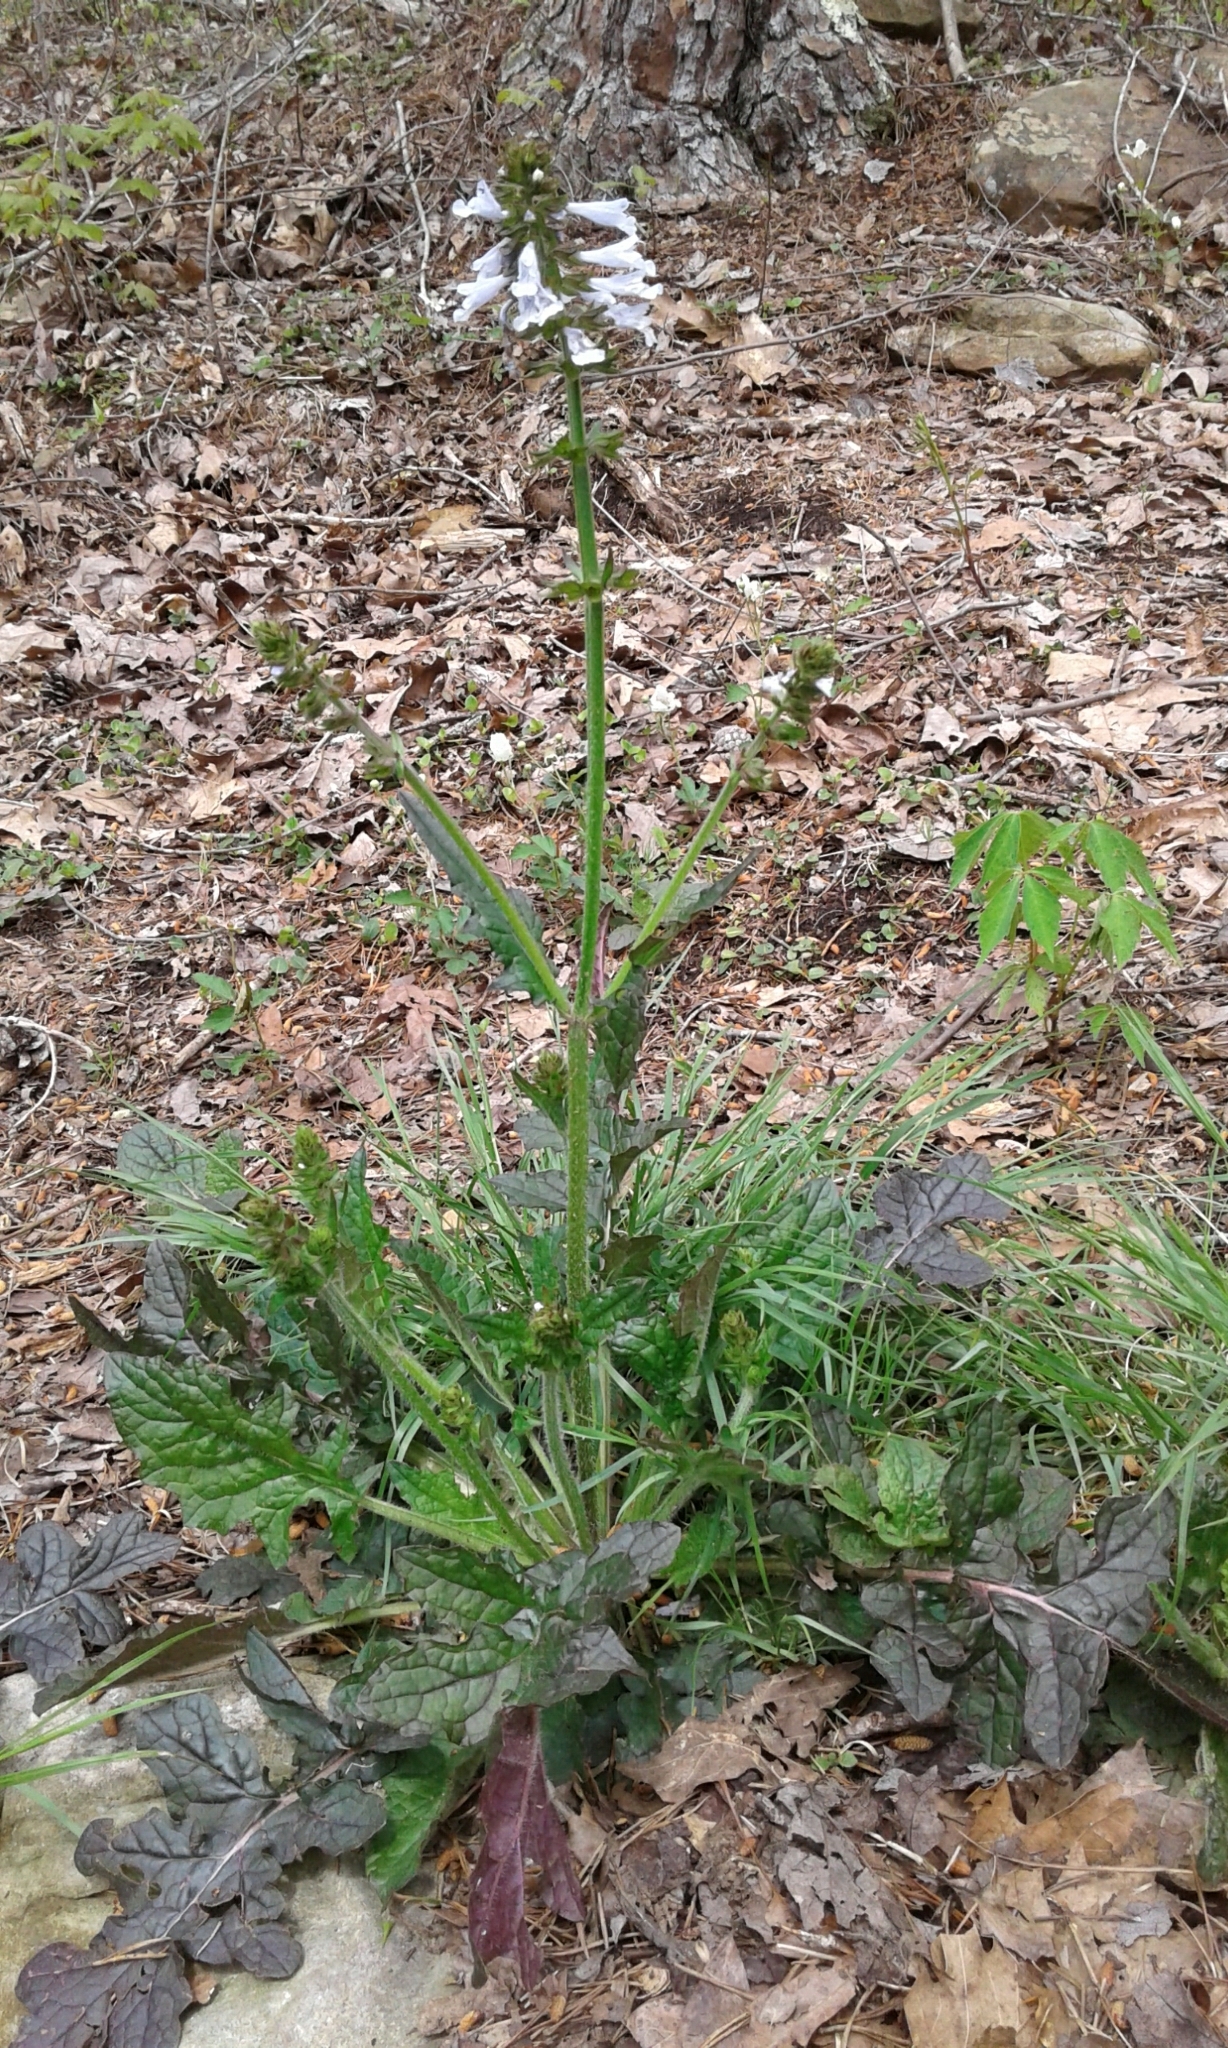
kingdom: Plantae
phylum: Tracheophyta
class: Magnoliopsida
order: Lamiales
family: Lamiaceae
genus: Salvia
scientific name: Salvia lyrata
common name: Cancerweed
